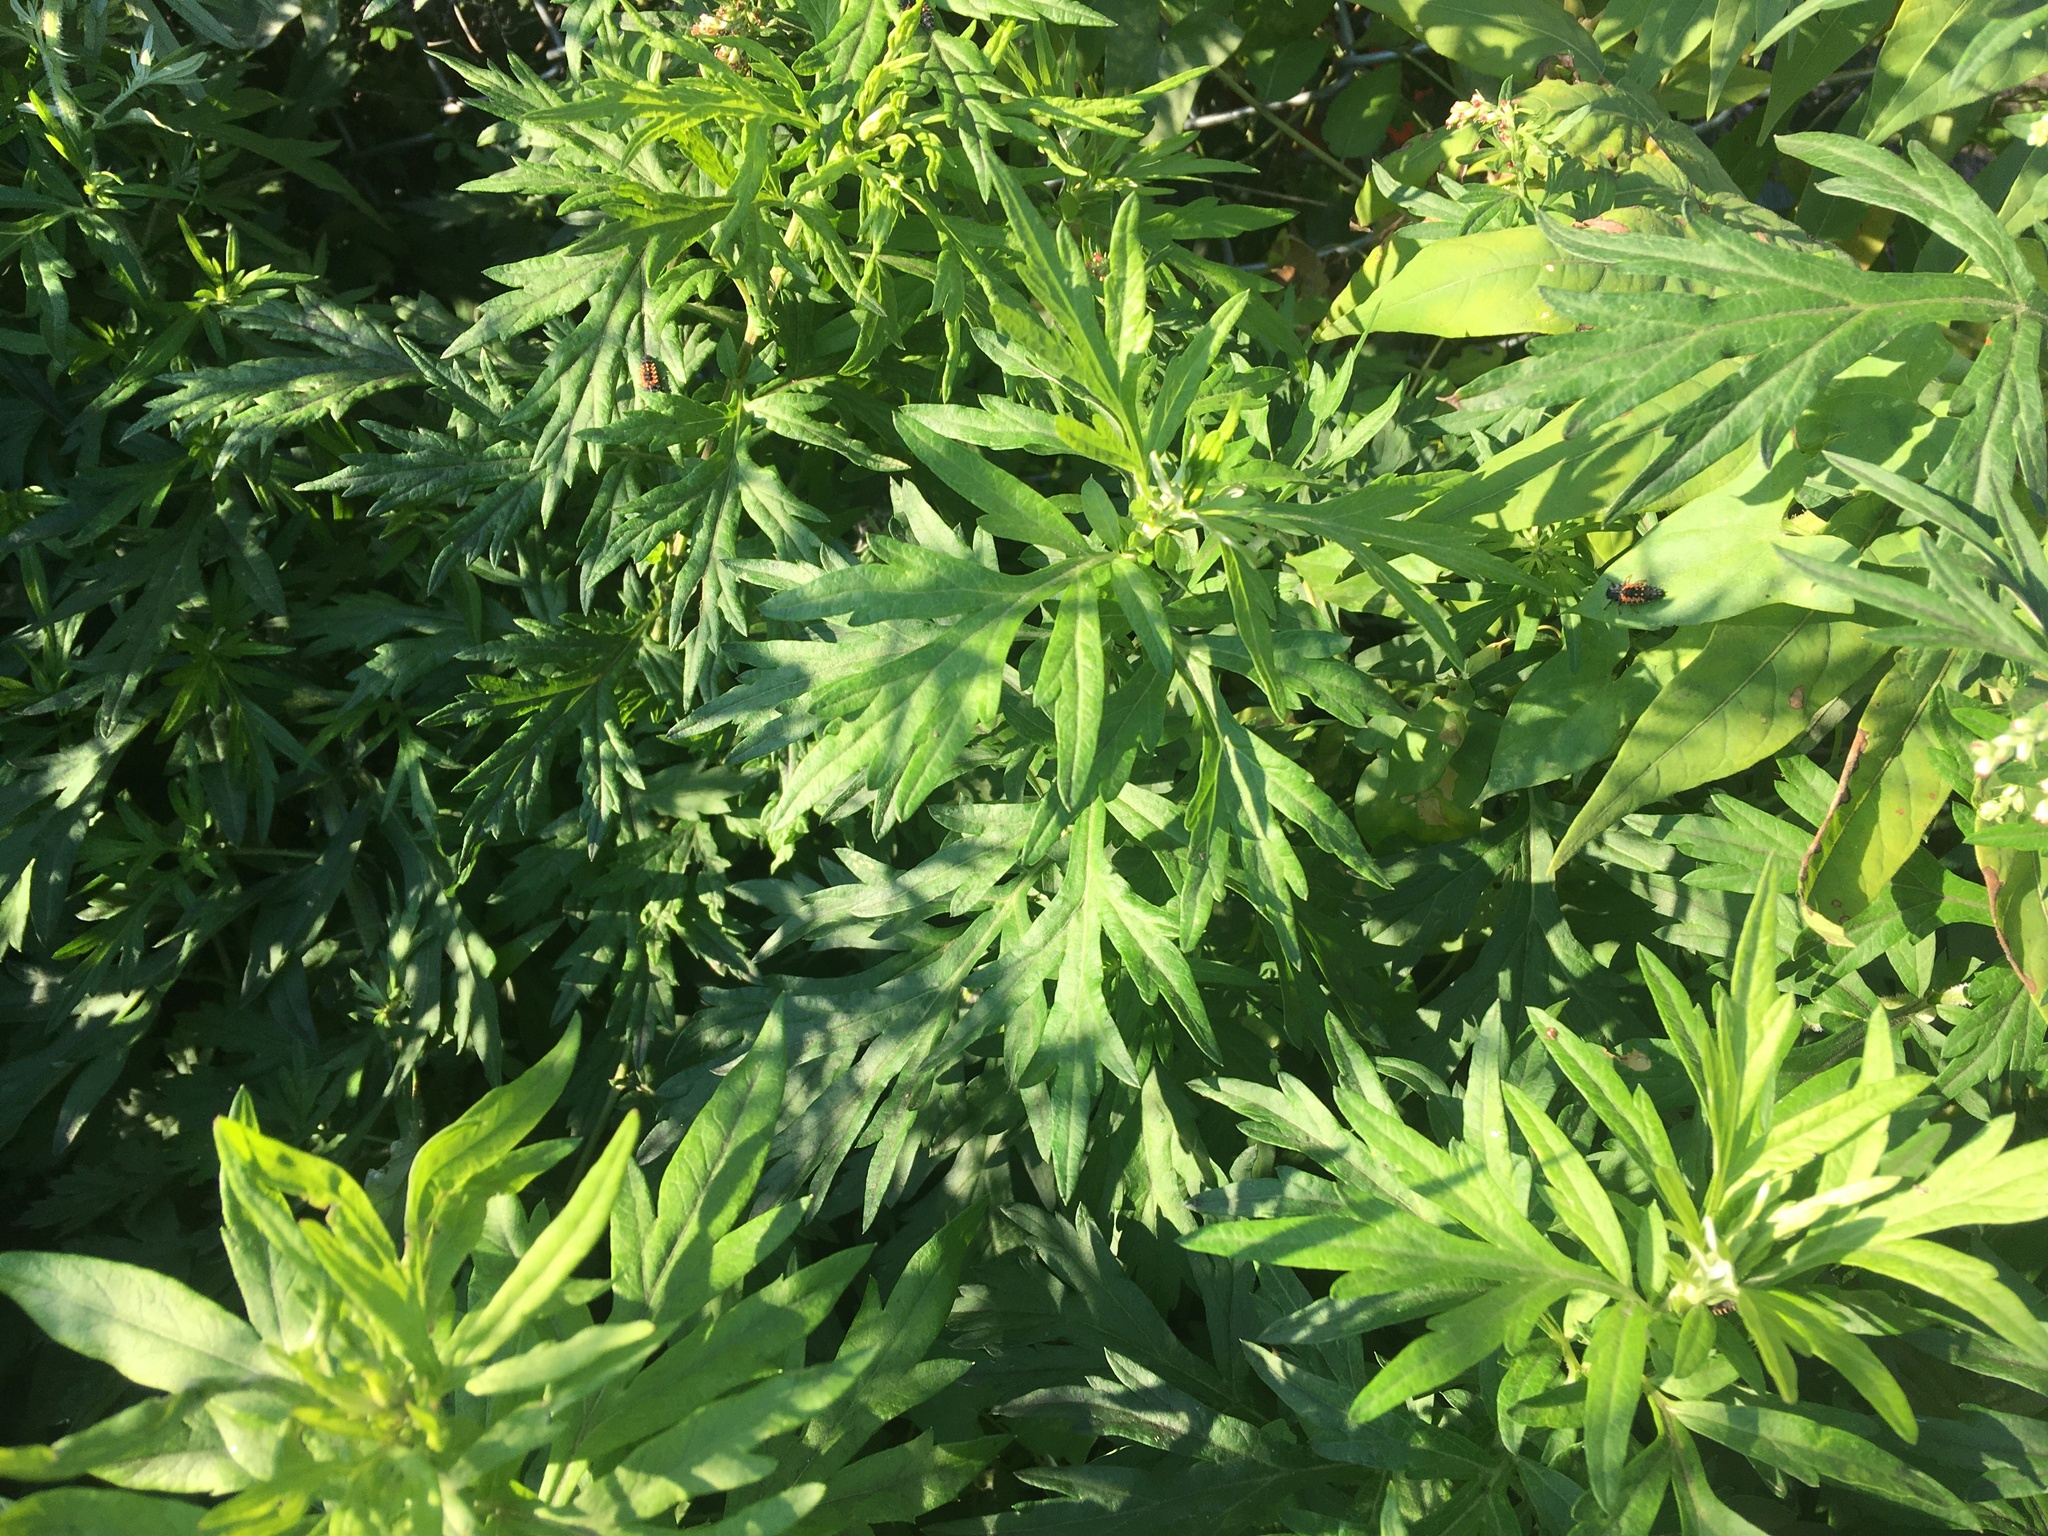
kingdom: Plantae
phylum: Tracheophyta
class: Magnoliopsida
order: Asterales
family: Asteraceae
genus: Artemisia
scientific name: Artemisia vulgaris
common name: Mugwort
